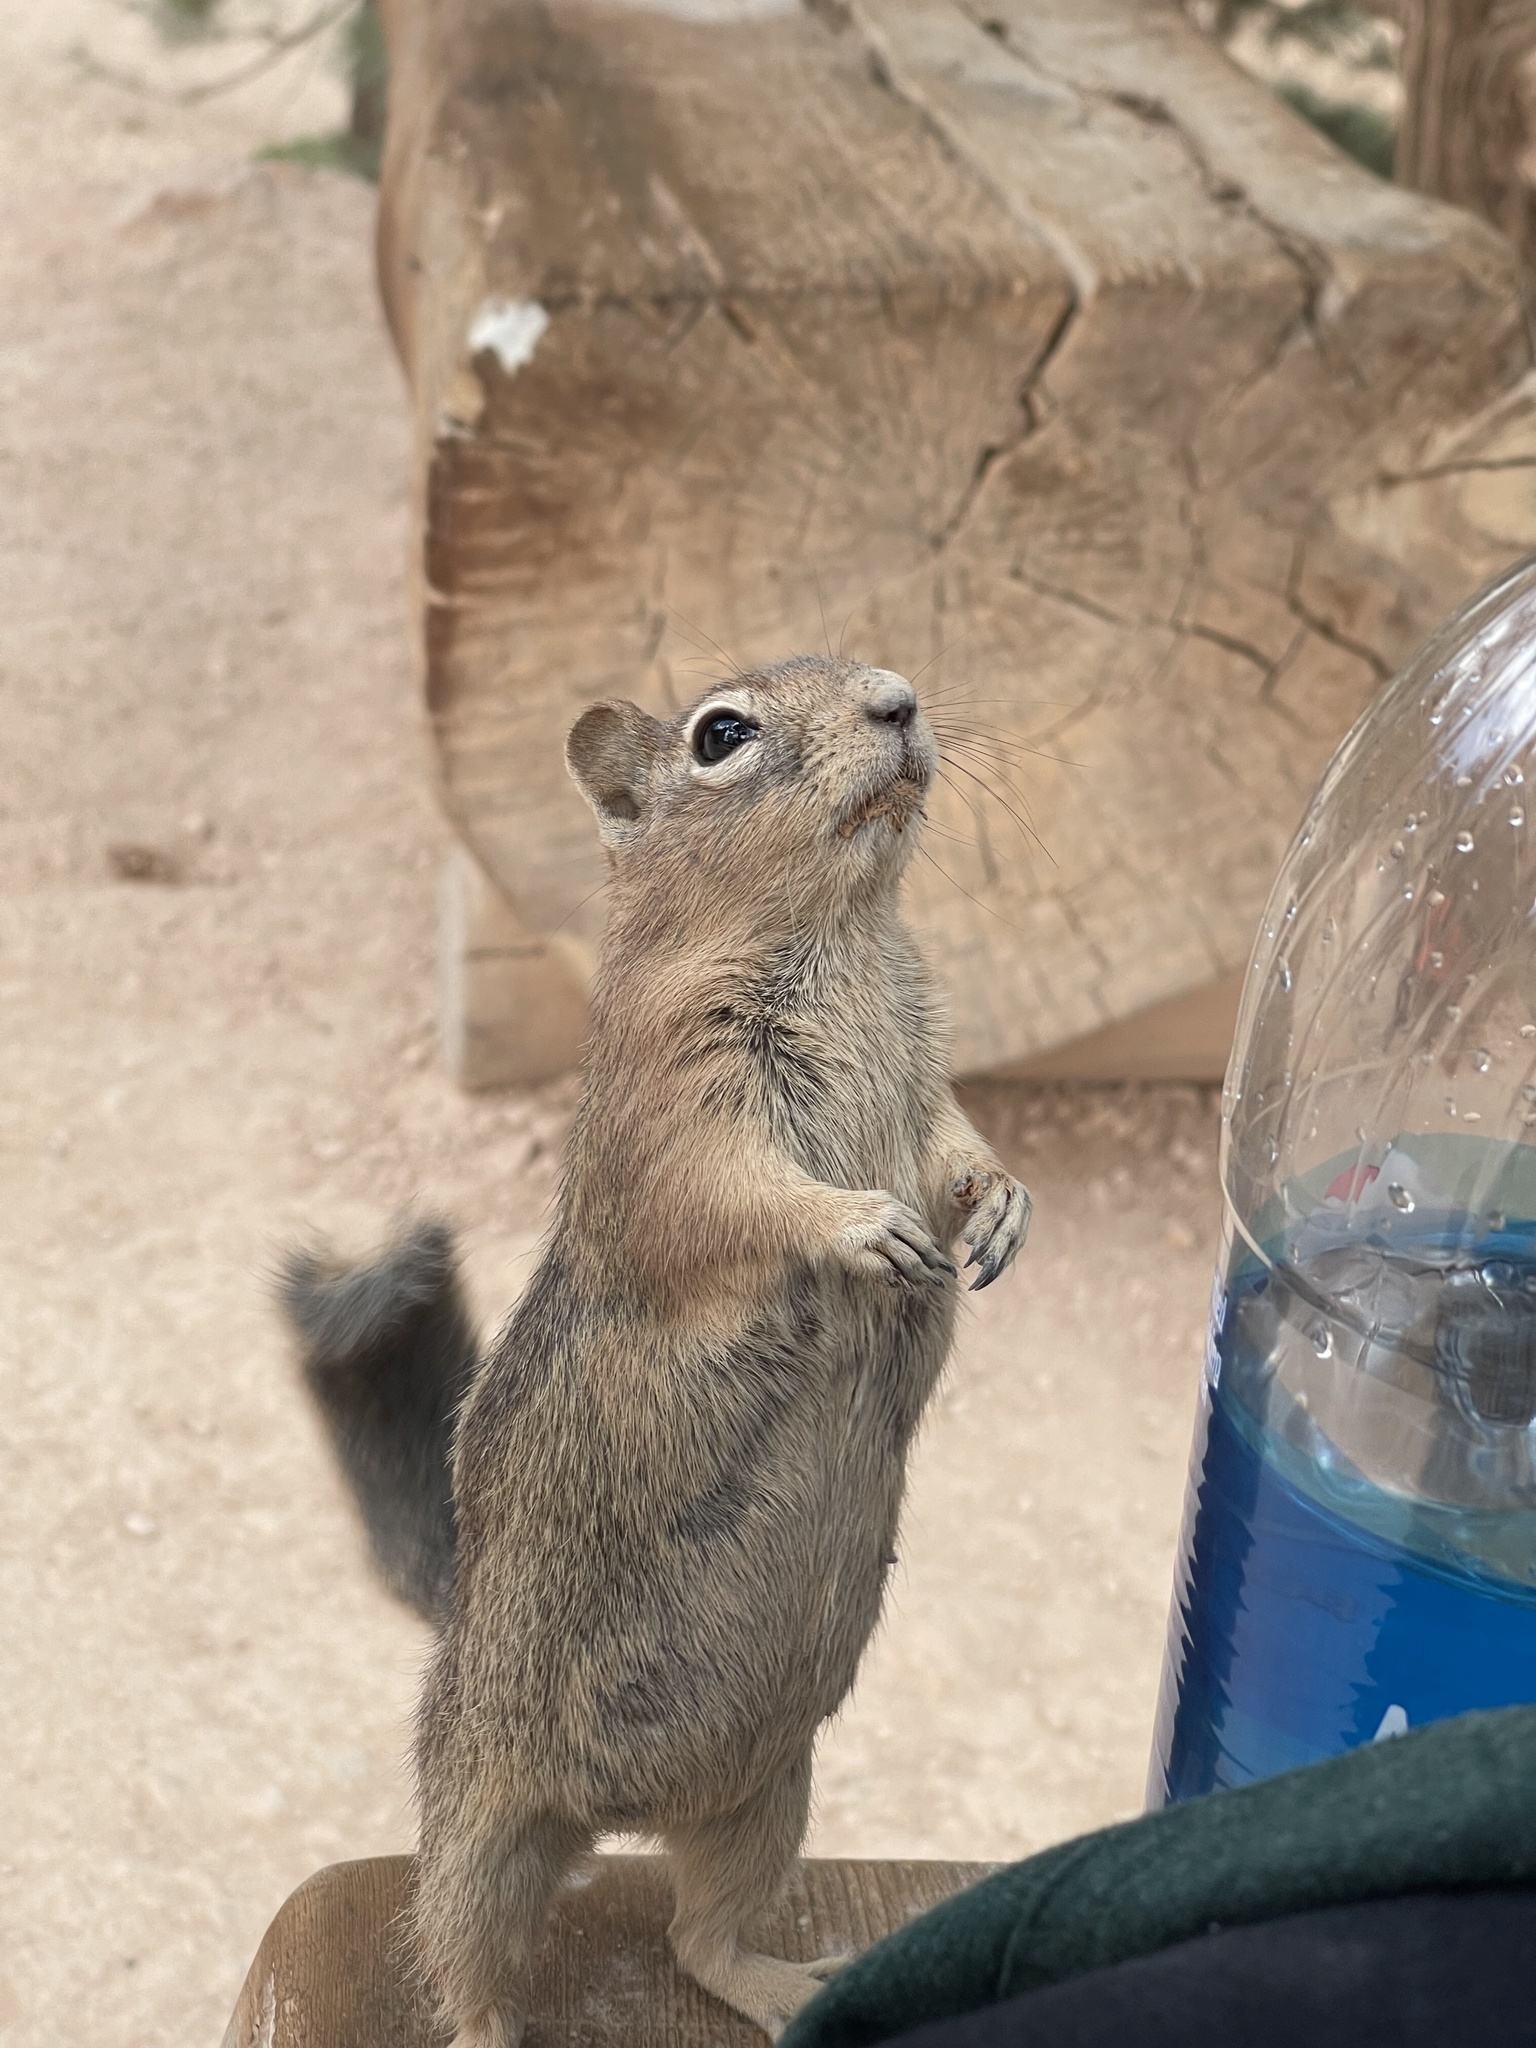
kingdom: Animalia
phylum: Chordata
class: Mammalia
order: Rodentia
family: Sciuridae
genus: Callospermophilus
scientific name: Callospermophilus lateralis
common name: Golden-mantled ground squirrel
